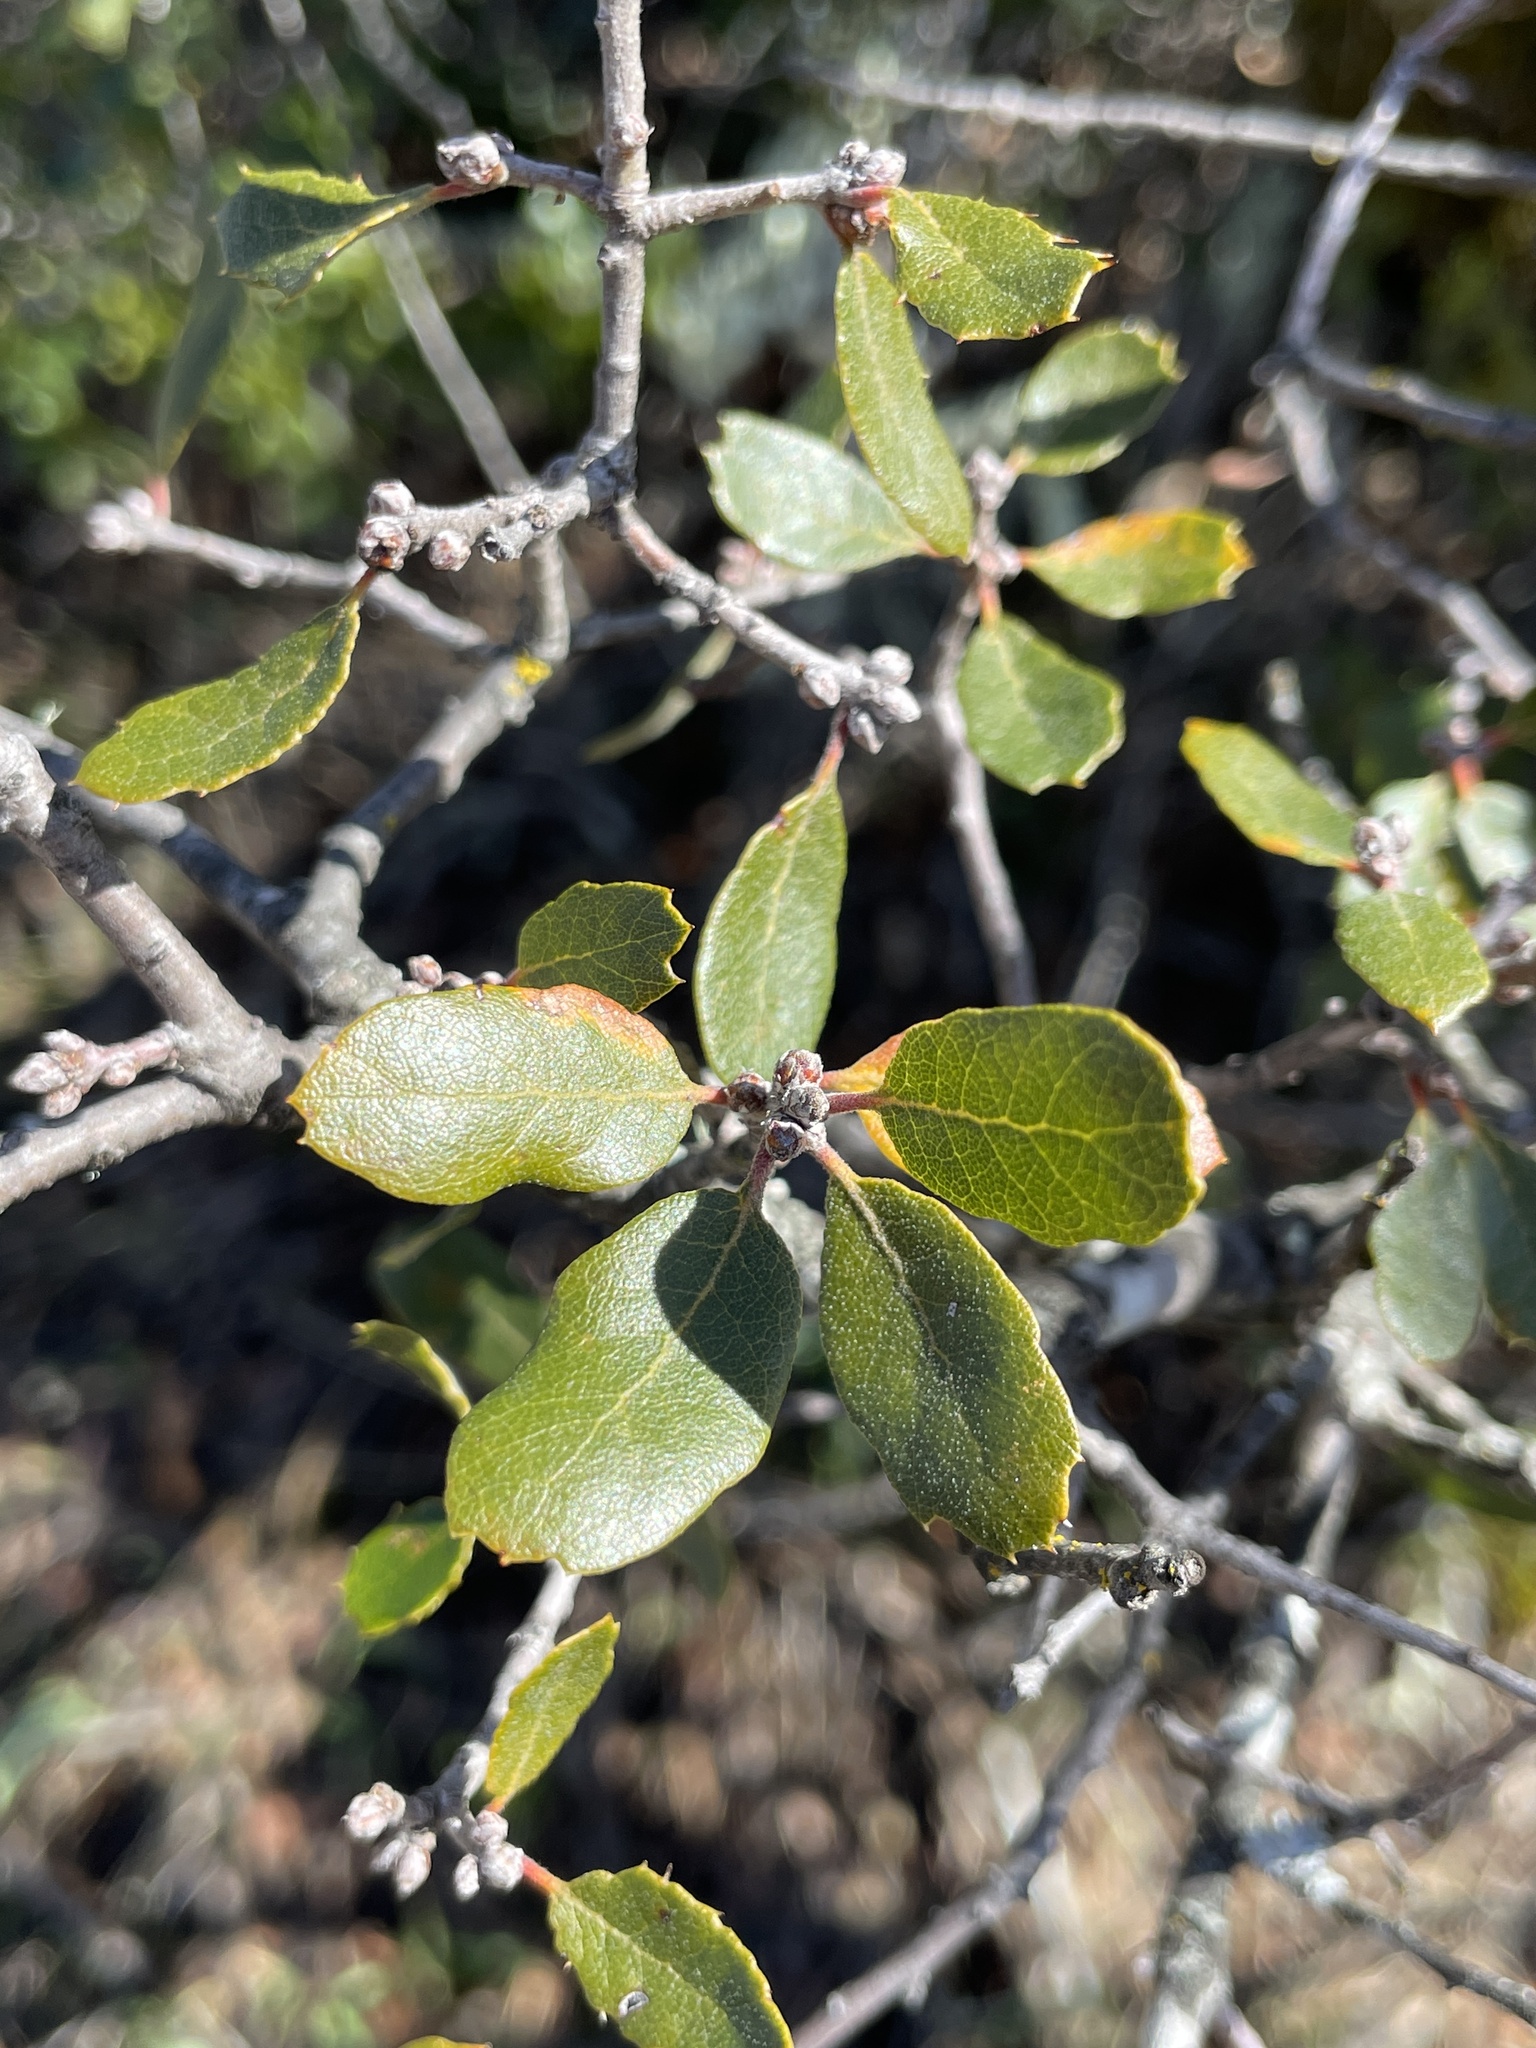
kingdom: Plantae
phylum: Tracheophyta
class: Magnoliopsida
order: Fagales
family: Fagaceae
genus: Quercus
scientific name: Quercus berberidifolia
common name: California scrub oak
